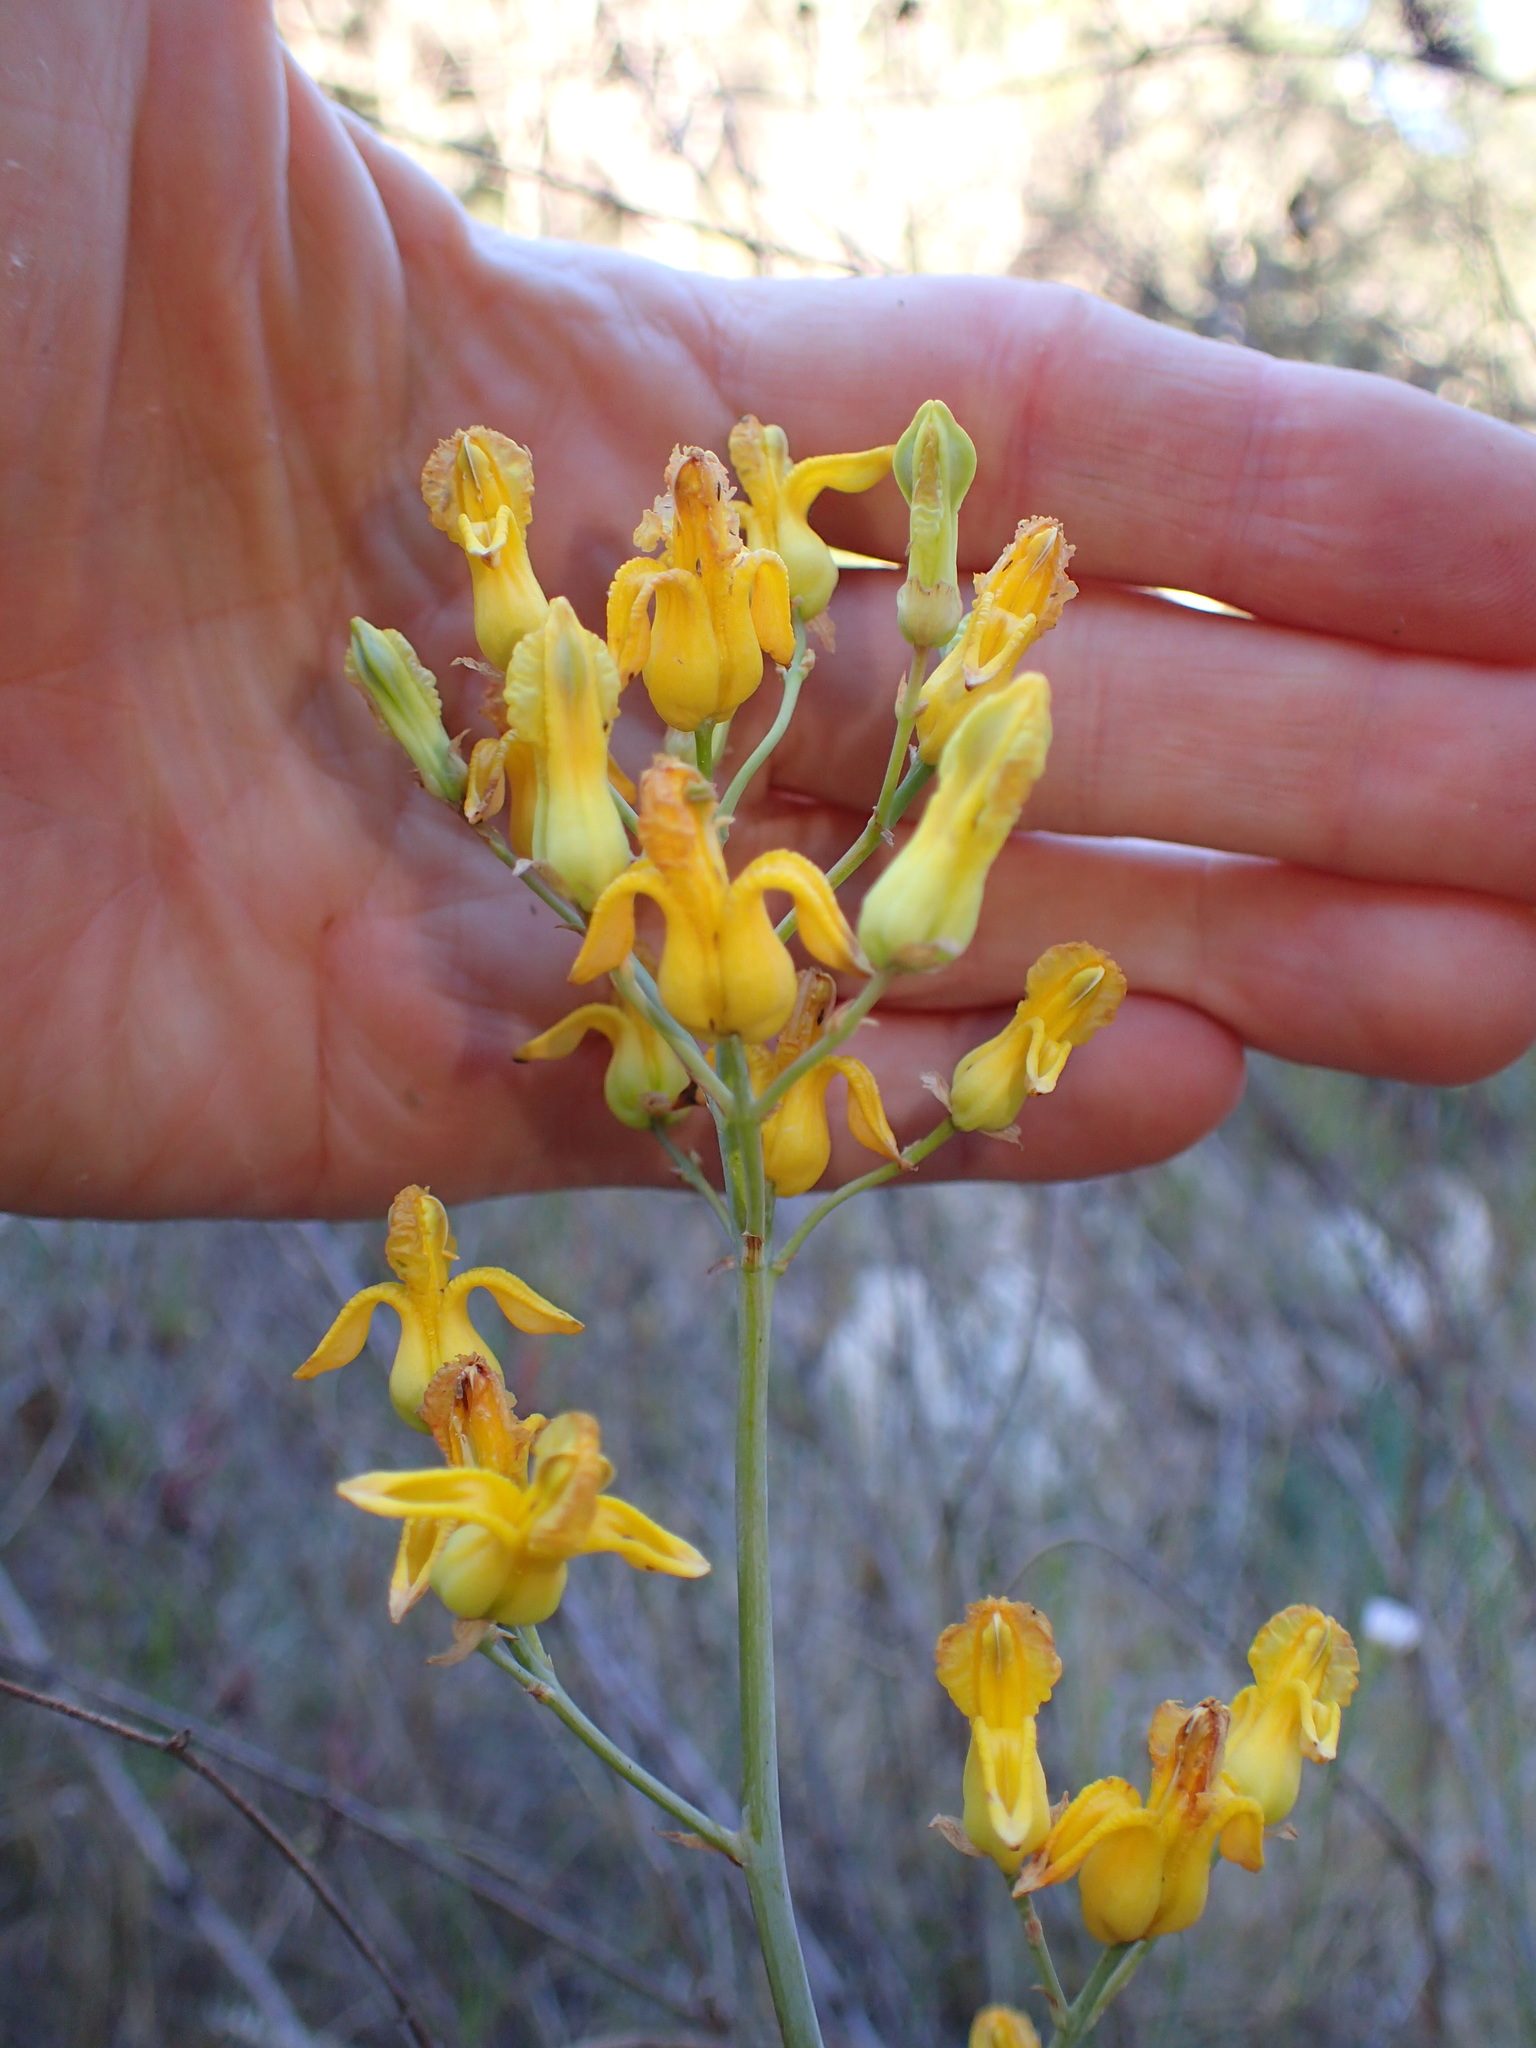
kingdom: Plantae
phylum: Tracheophyta
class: Magnoliopsida
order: Ranunculales
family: Papaveraceae
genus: Ehrendorferia
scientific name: Ehrendorferia chrysantha
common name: Golden eardrops
